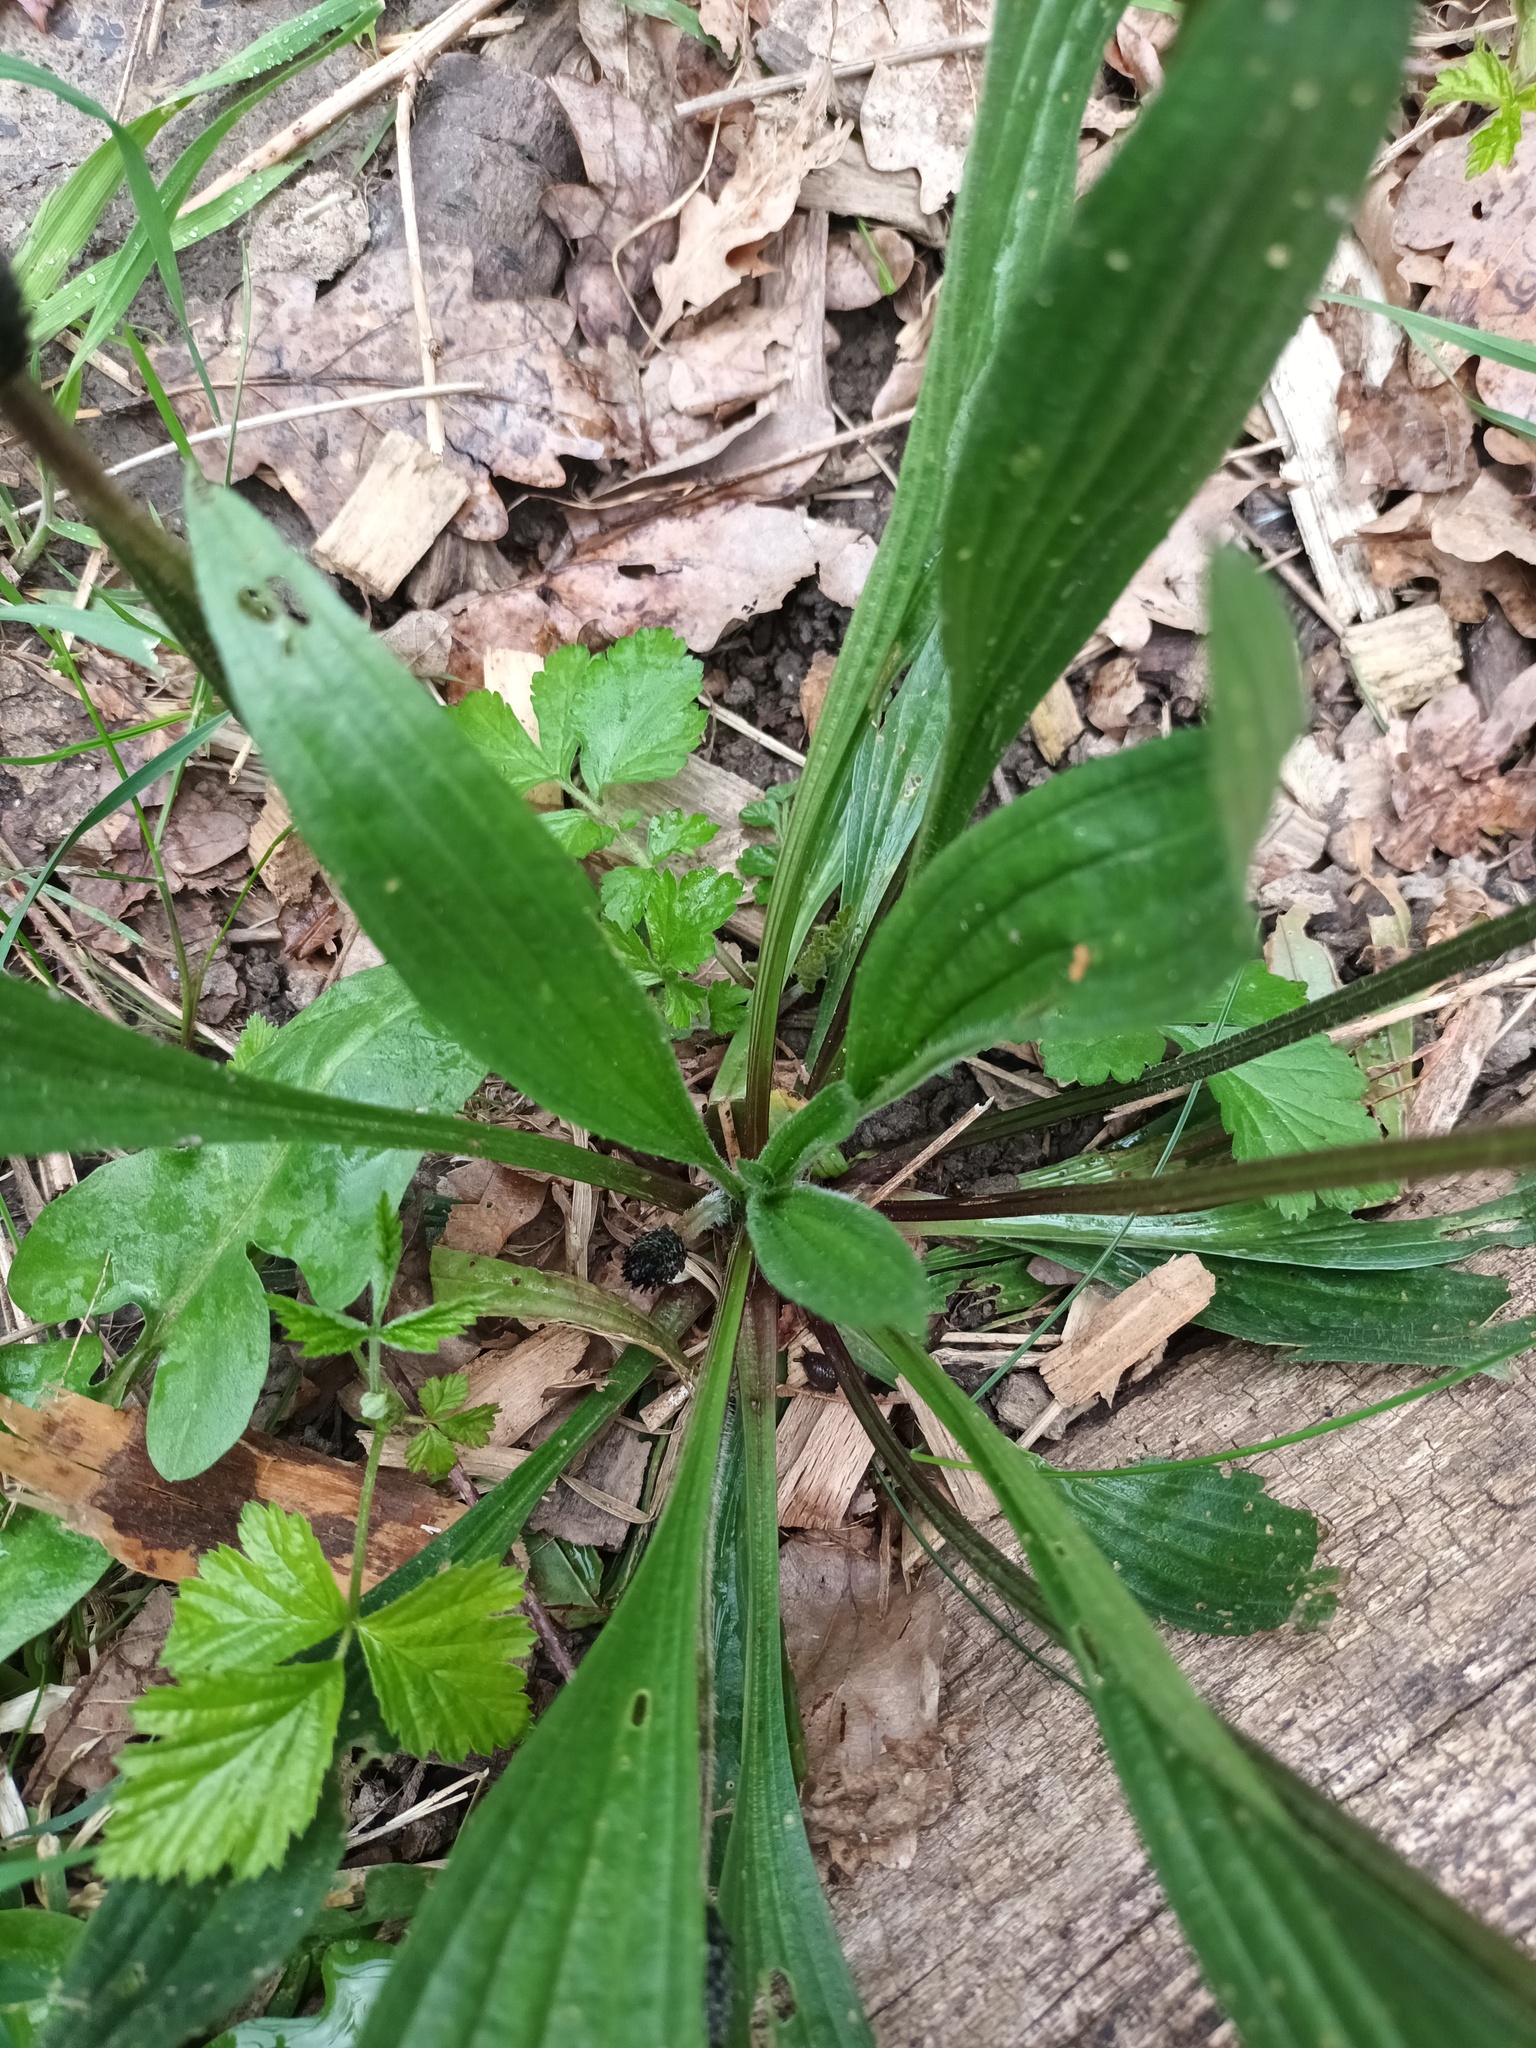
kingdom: Plantae
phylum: Tracheophyta
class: Magnoliopsida
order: Lamiales
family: Plantaginaceae
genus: Plantago
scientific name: Plantago lanceolata
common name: Ribwort plantain
